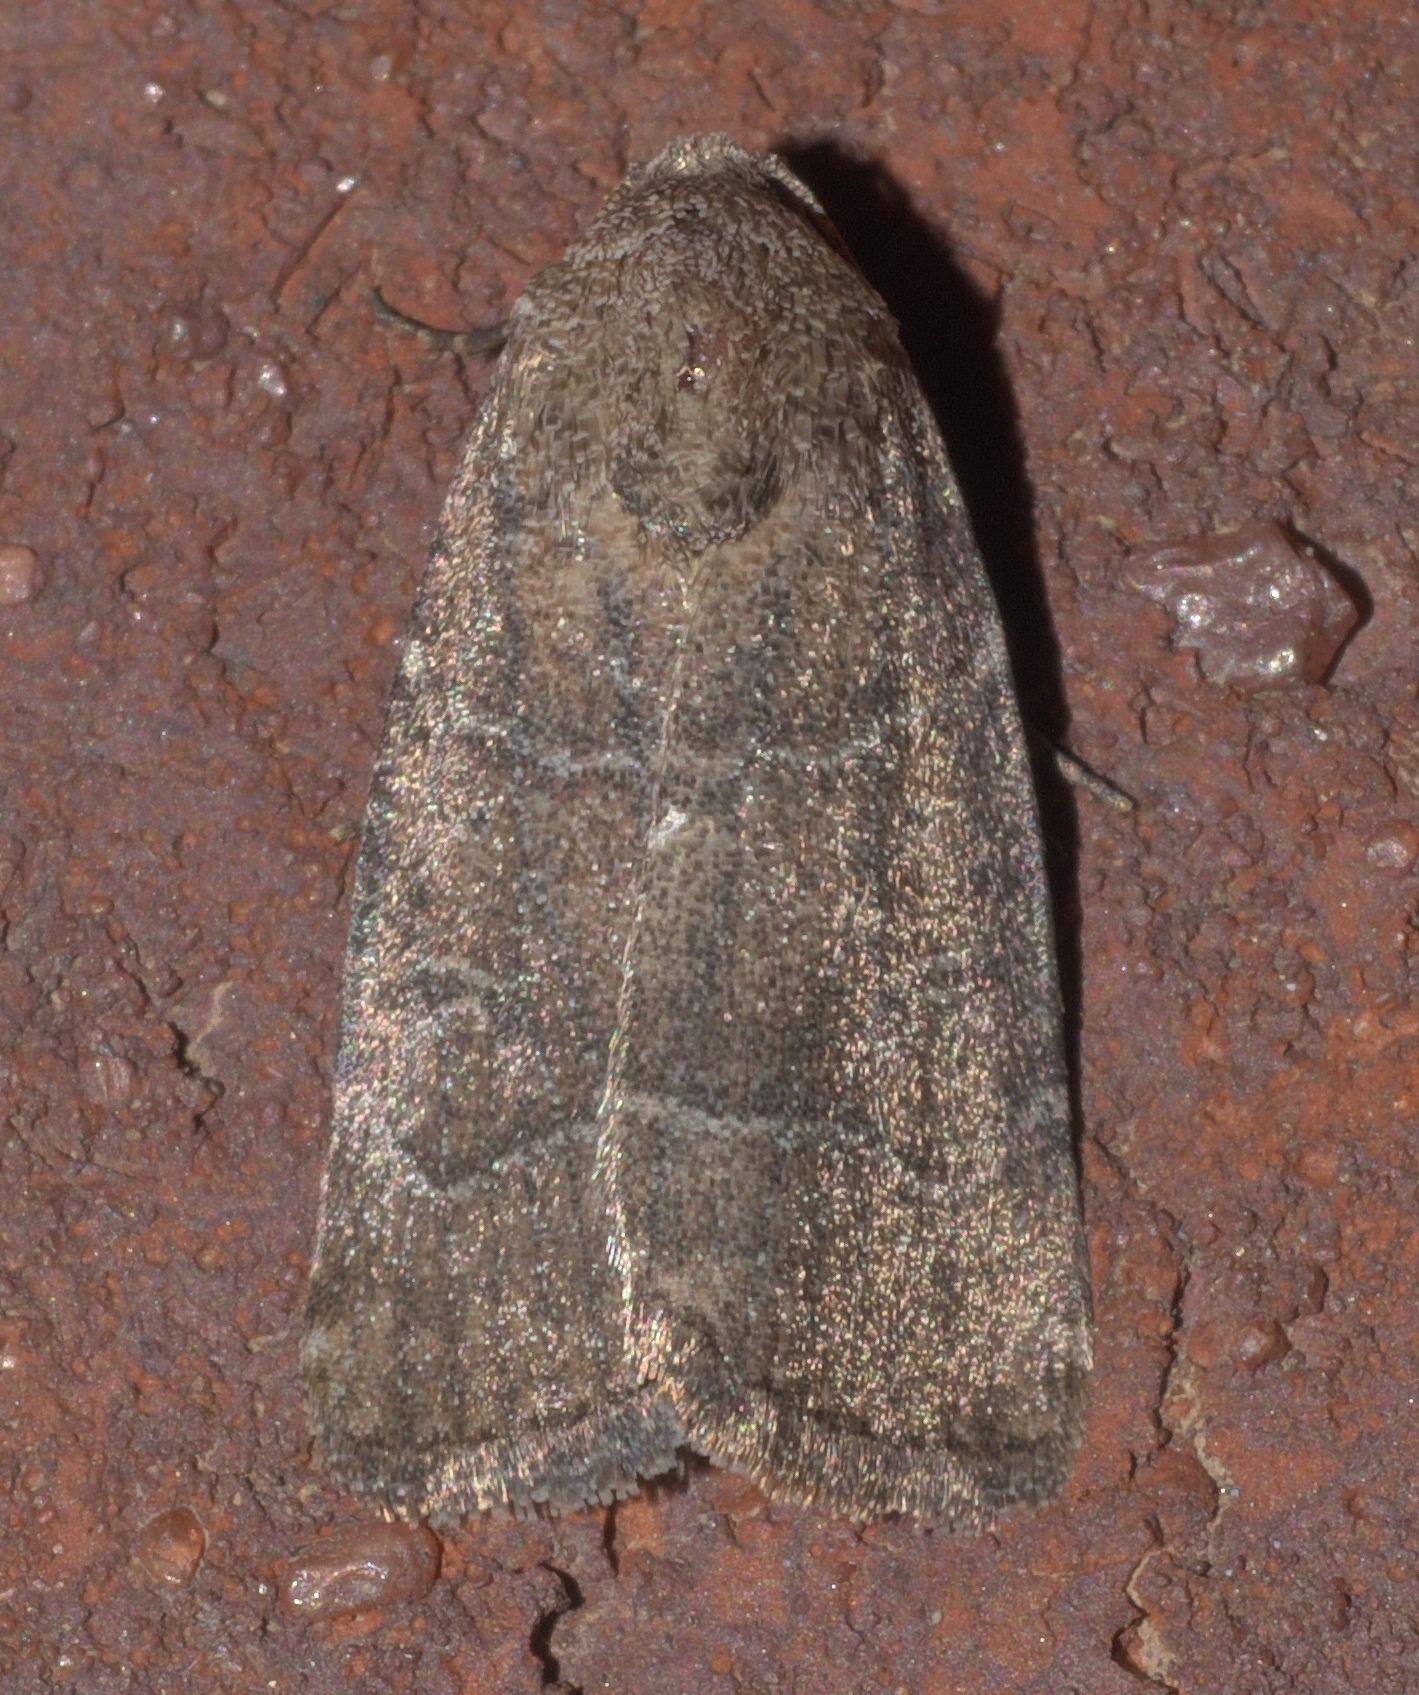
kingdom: Animalia
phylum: Arthropoda
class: Insecta
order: Lepidoptera
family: Noctuidae
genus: Elaphria
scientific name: Elaphria grata
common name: Grateful midget moth
